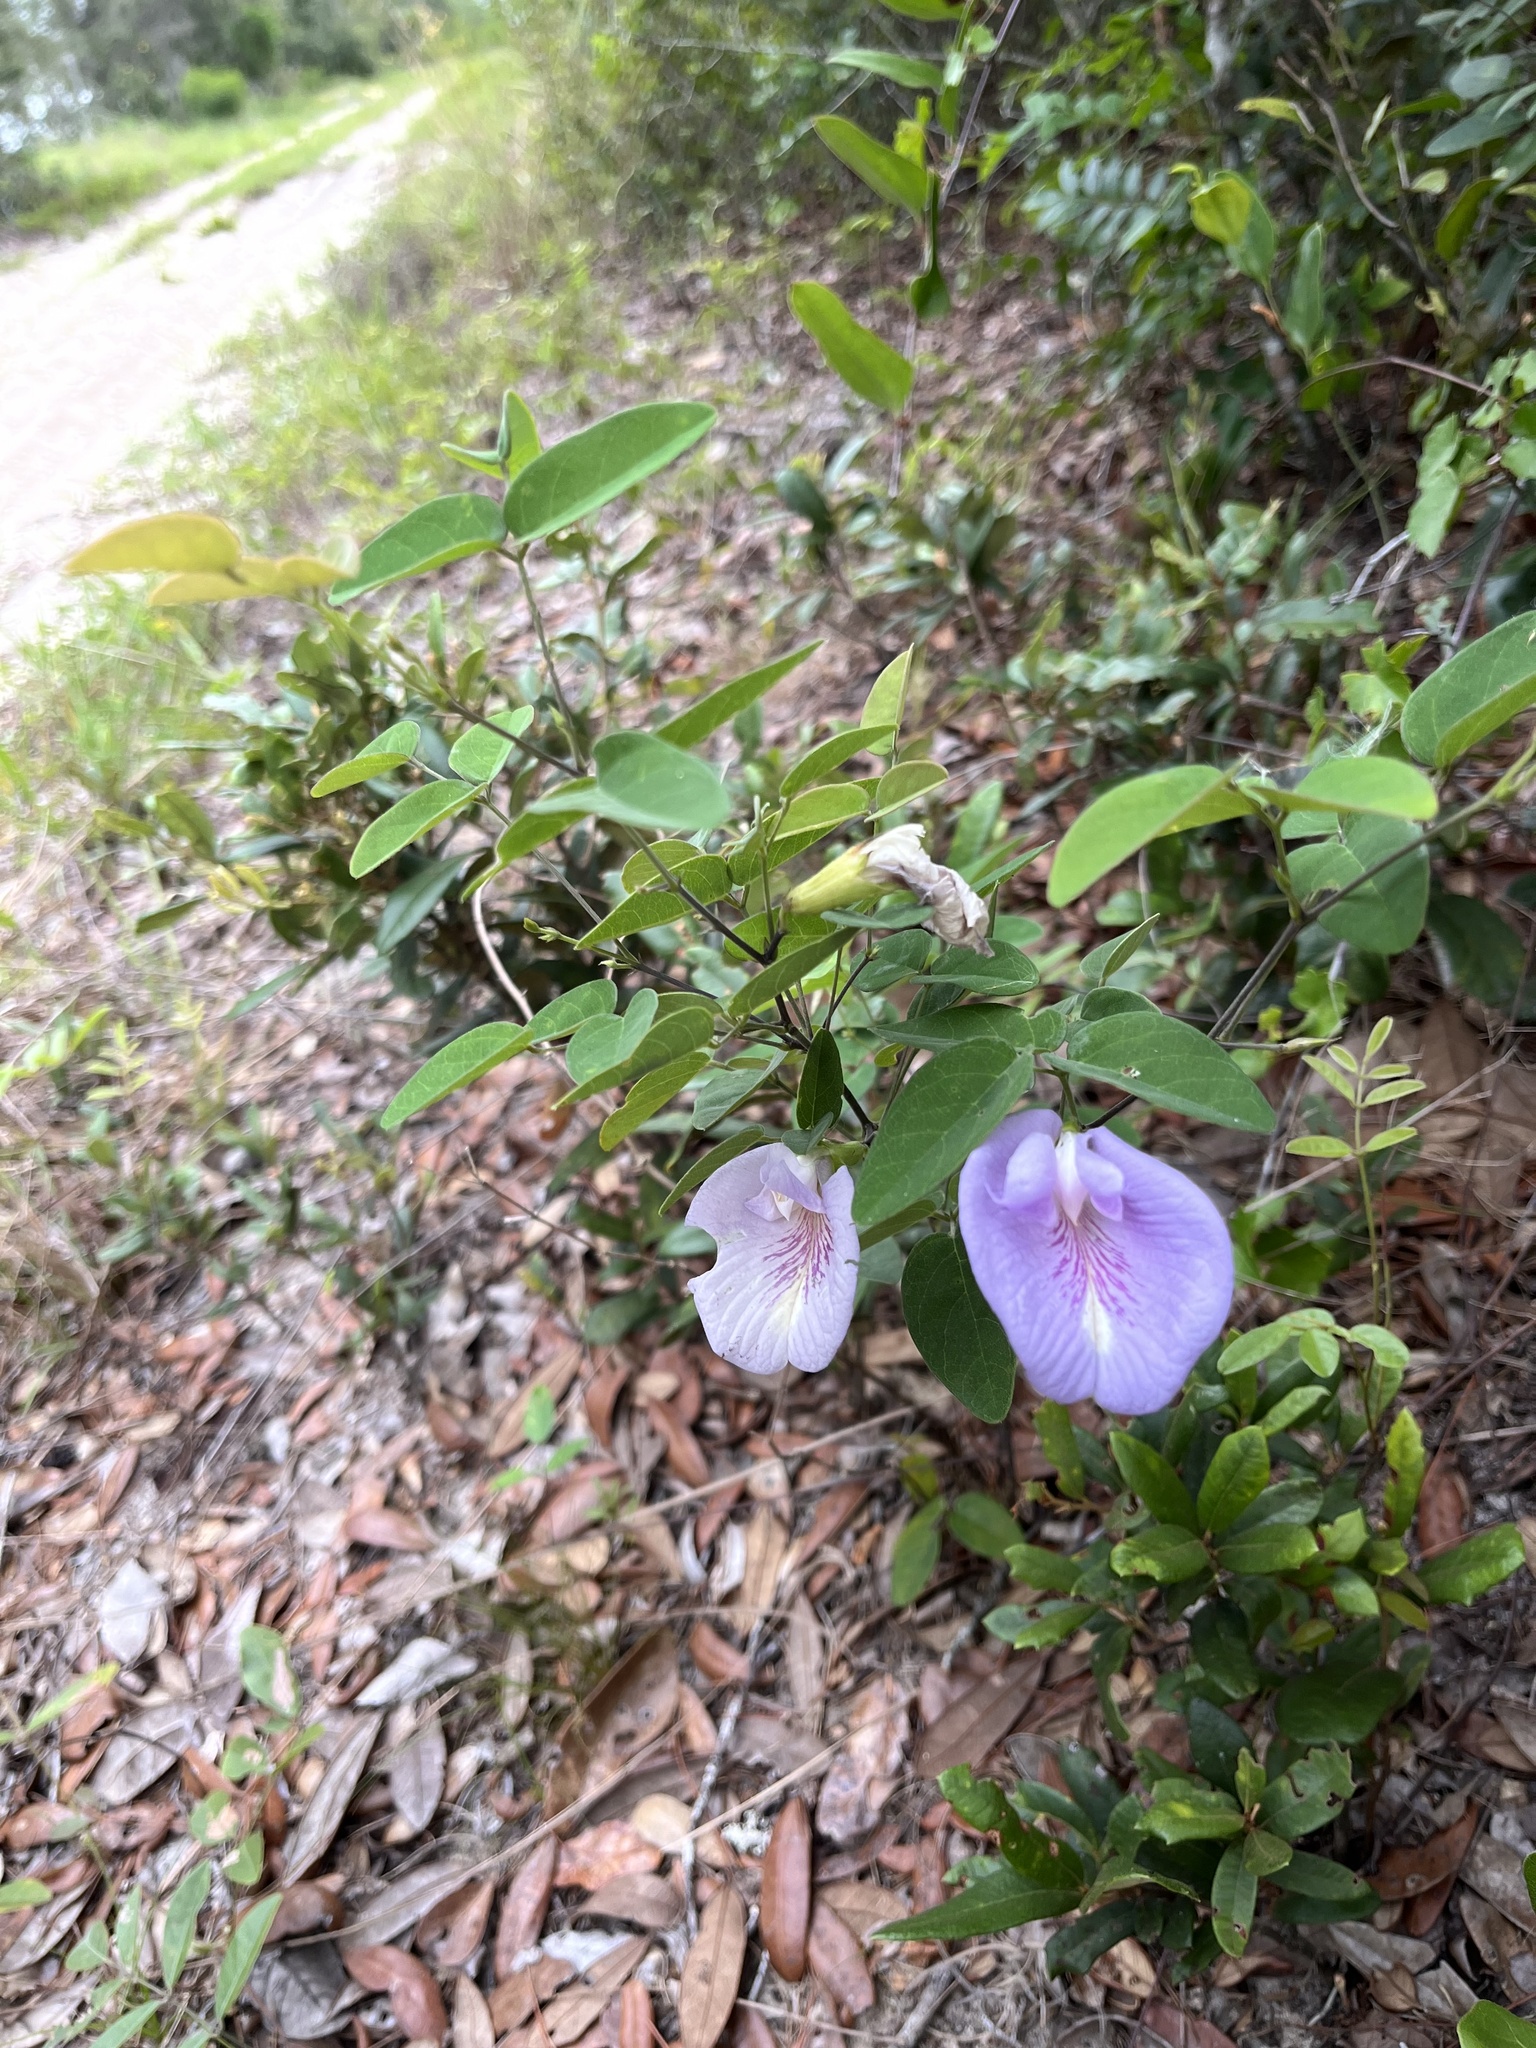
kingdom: Plantae
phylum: Tracheophyta
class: Magnoliopsida
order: Fabales
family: Fabaceae
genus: Clitoria
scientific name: Clitoria mariana
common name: Butterfly-pea
